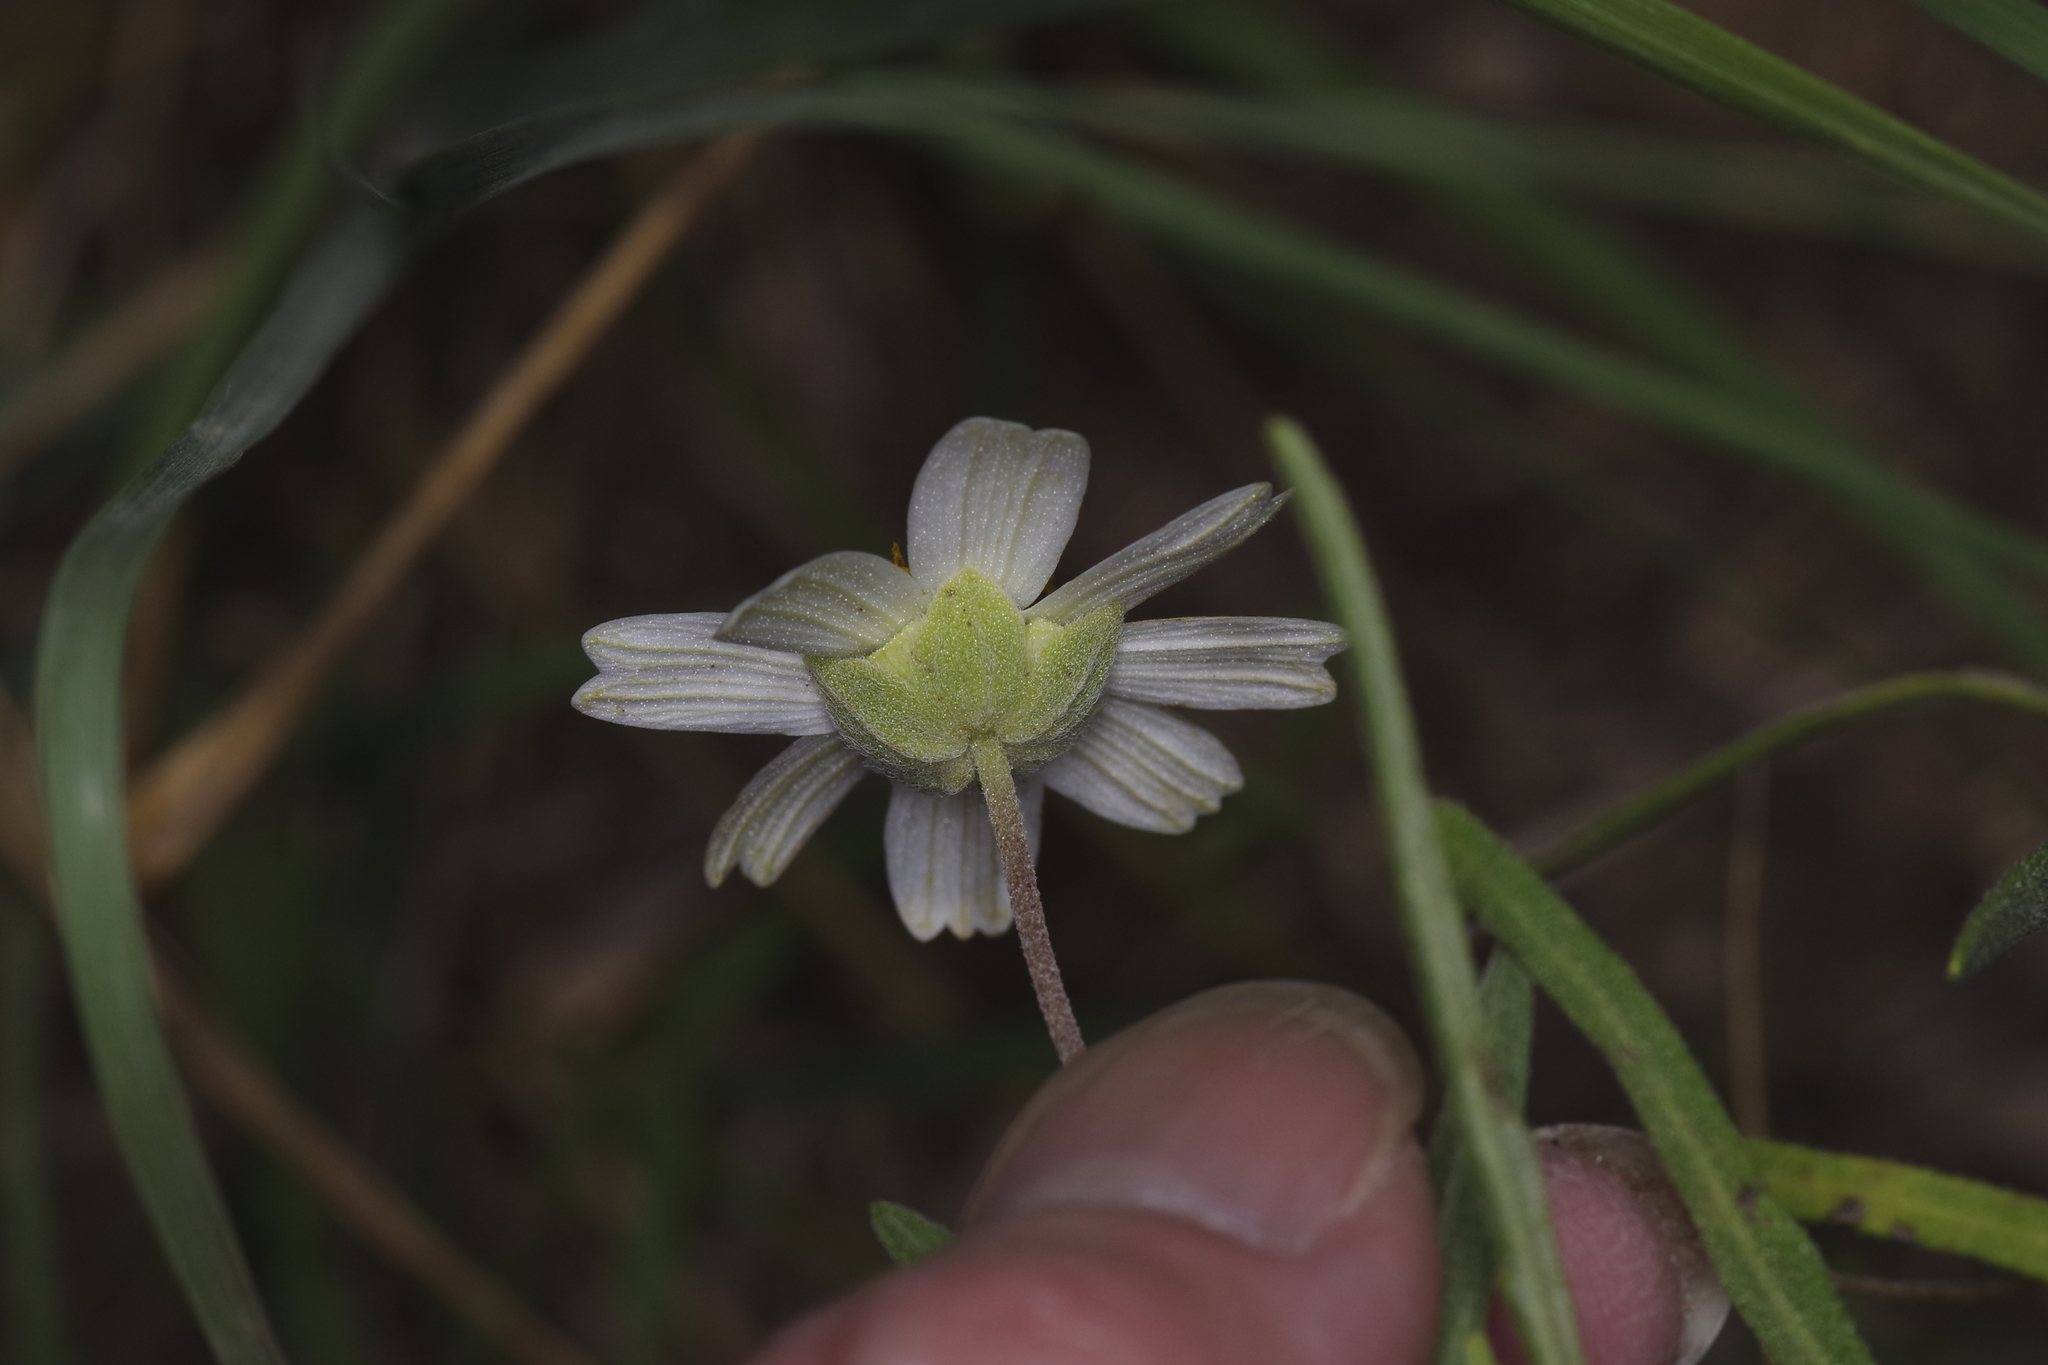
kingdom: Plantae
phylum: Tracheophyta
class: Magnoliopsida
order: Asterales
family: Asteraceae
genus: Melampodium
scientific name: Melampodium leucanthum
